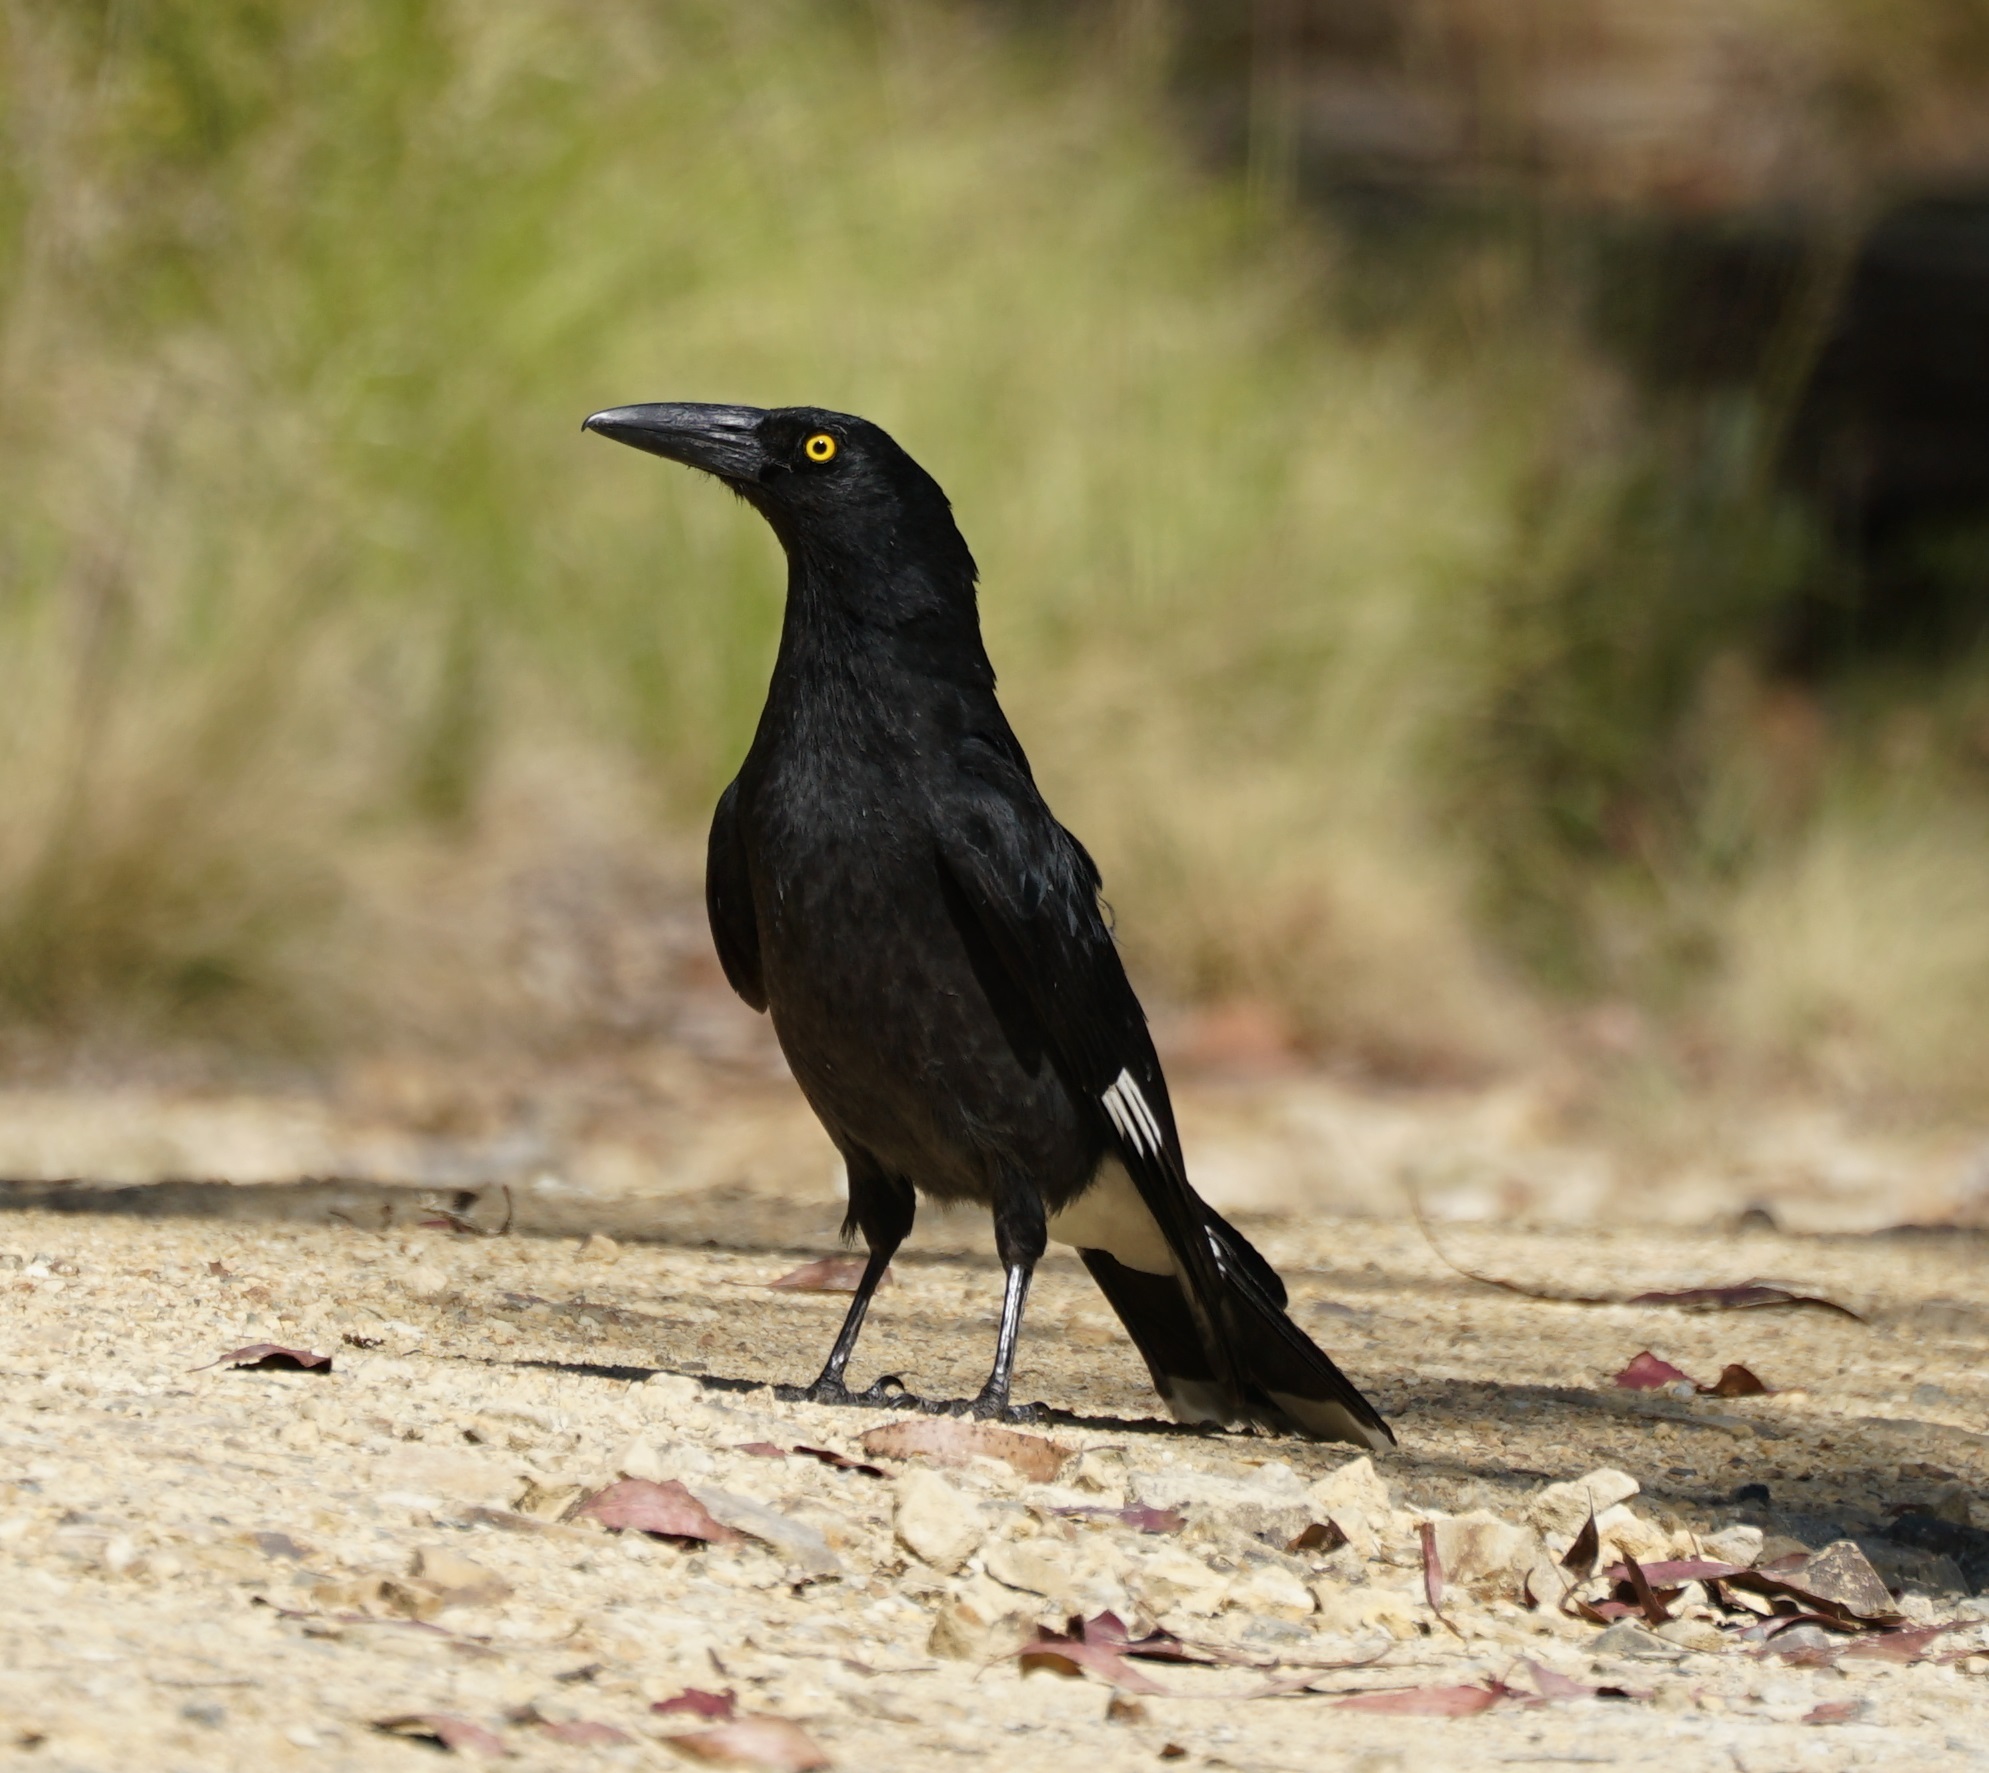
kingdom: Animalia
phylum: Chordata
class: Aves
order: Passeriformes
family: Cracticidae
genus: Strepera
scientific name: Strepera graculina
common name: Pied currawong
